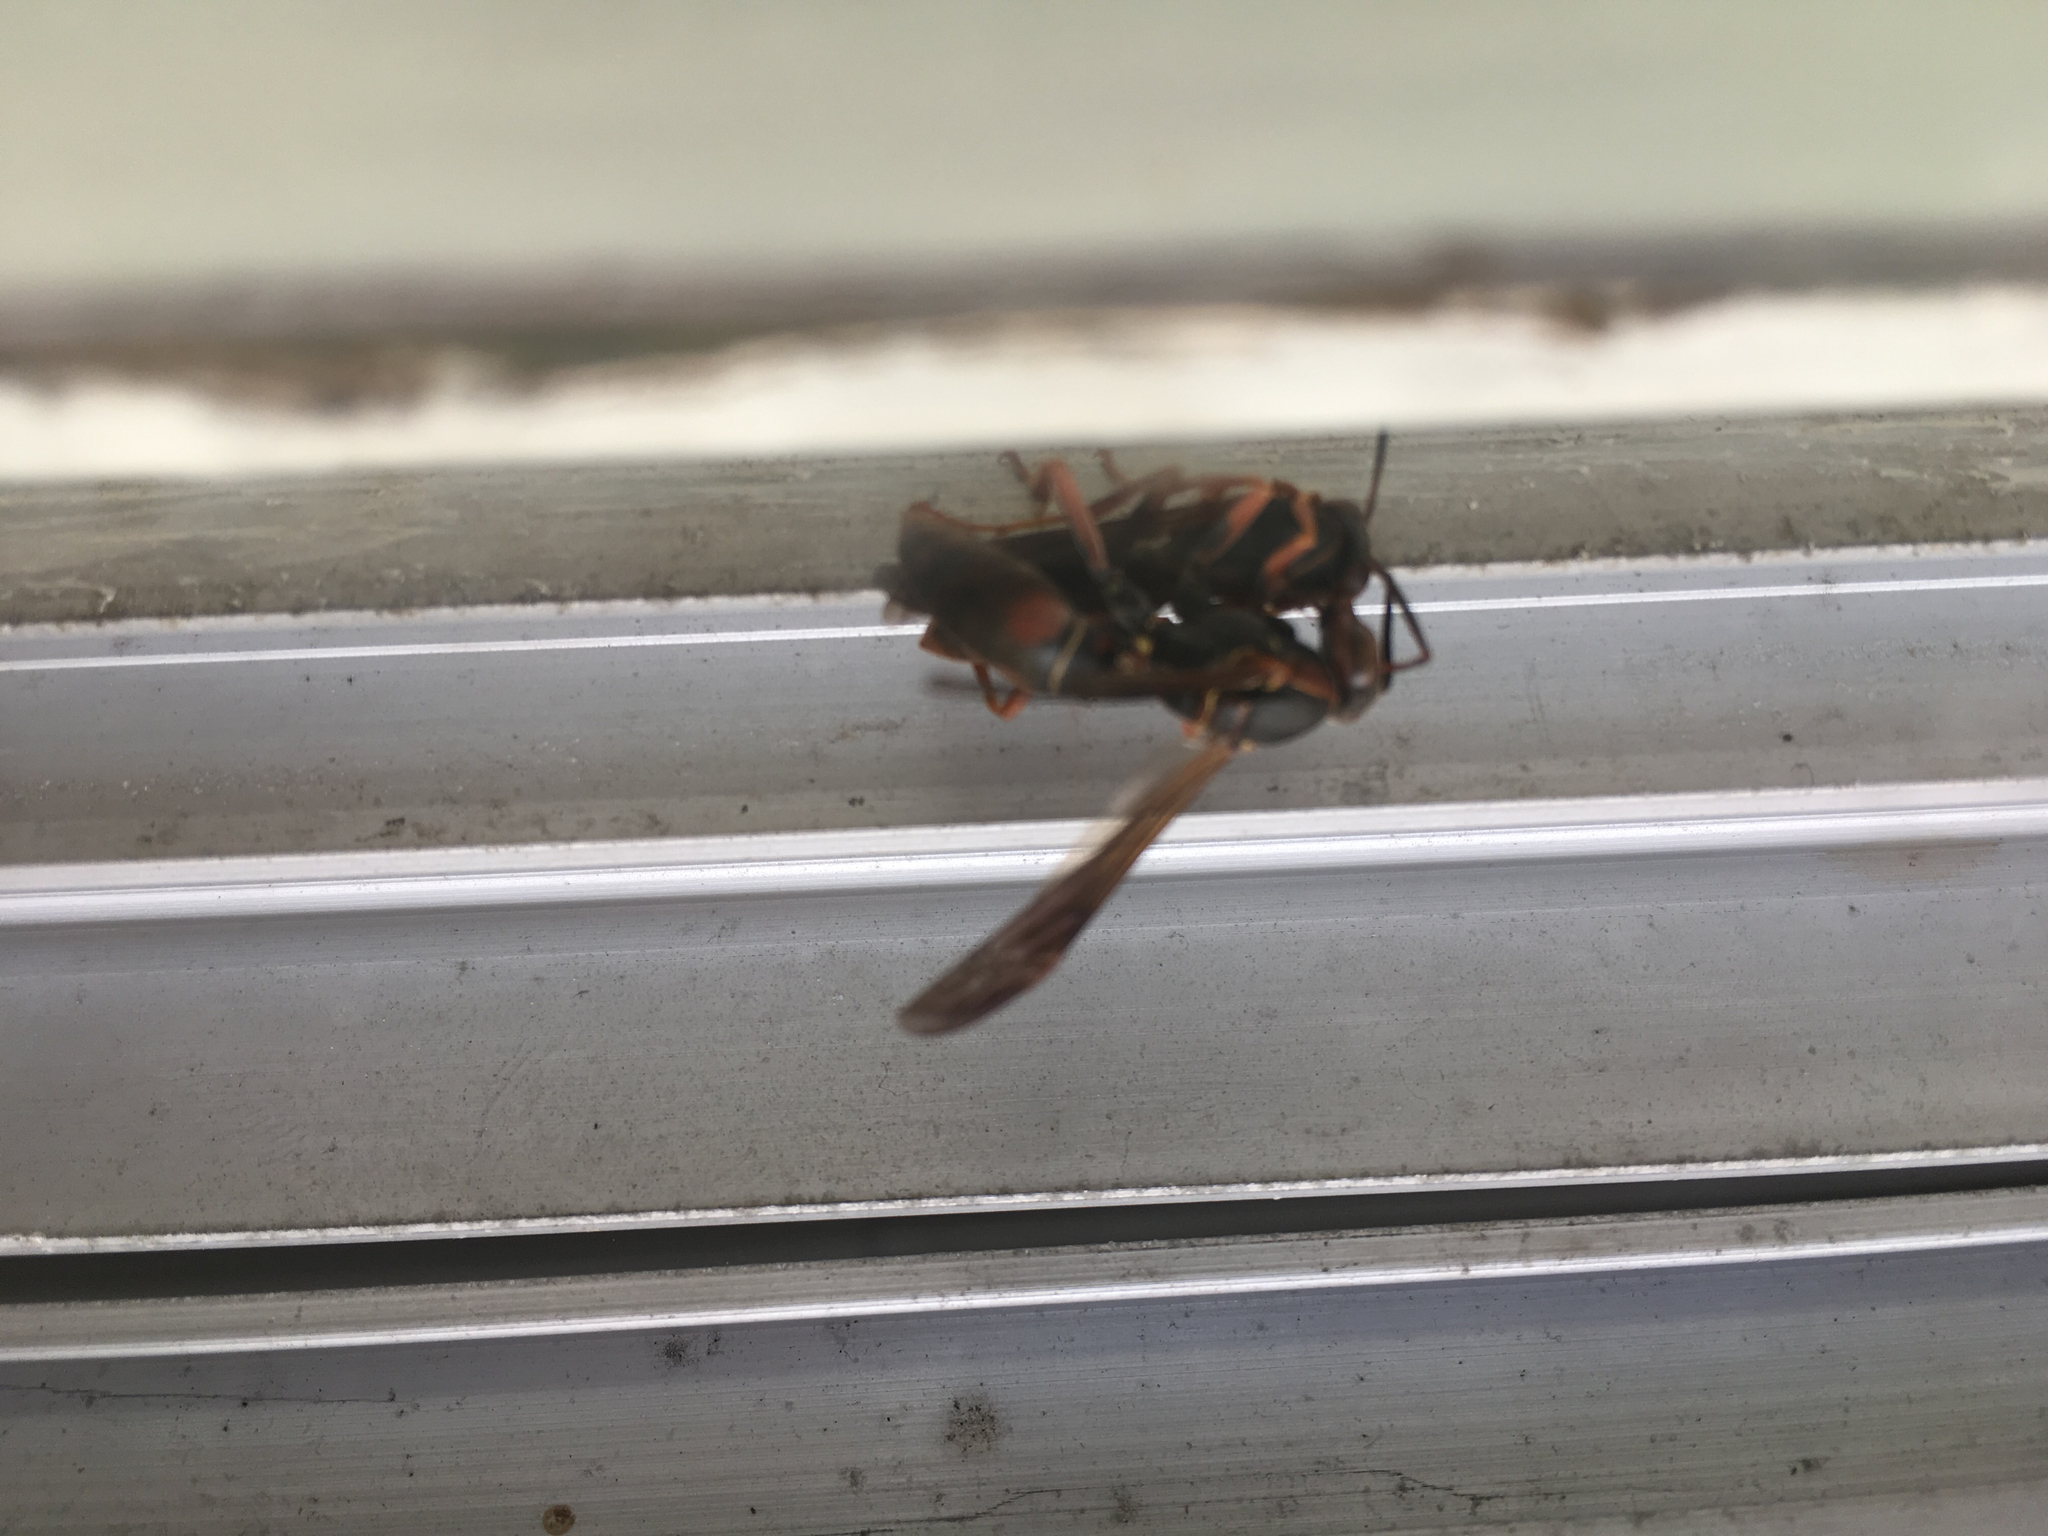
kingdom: Animalia
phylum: Arthropoda
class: Insecta
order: Hymenoptera
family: Eumenidae
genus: Polistes
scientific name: Polistes fuscatus
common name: Dark paper wasp
